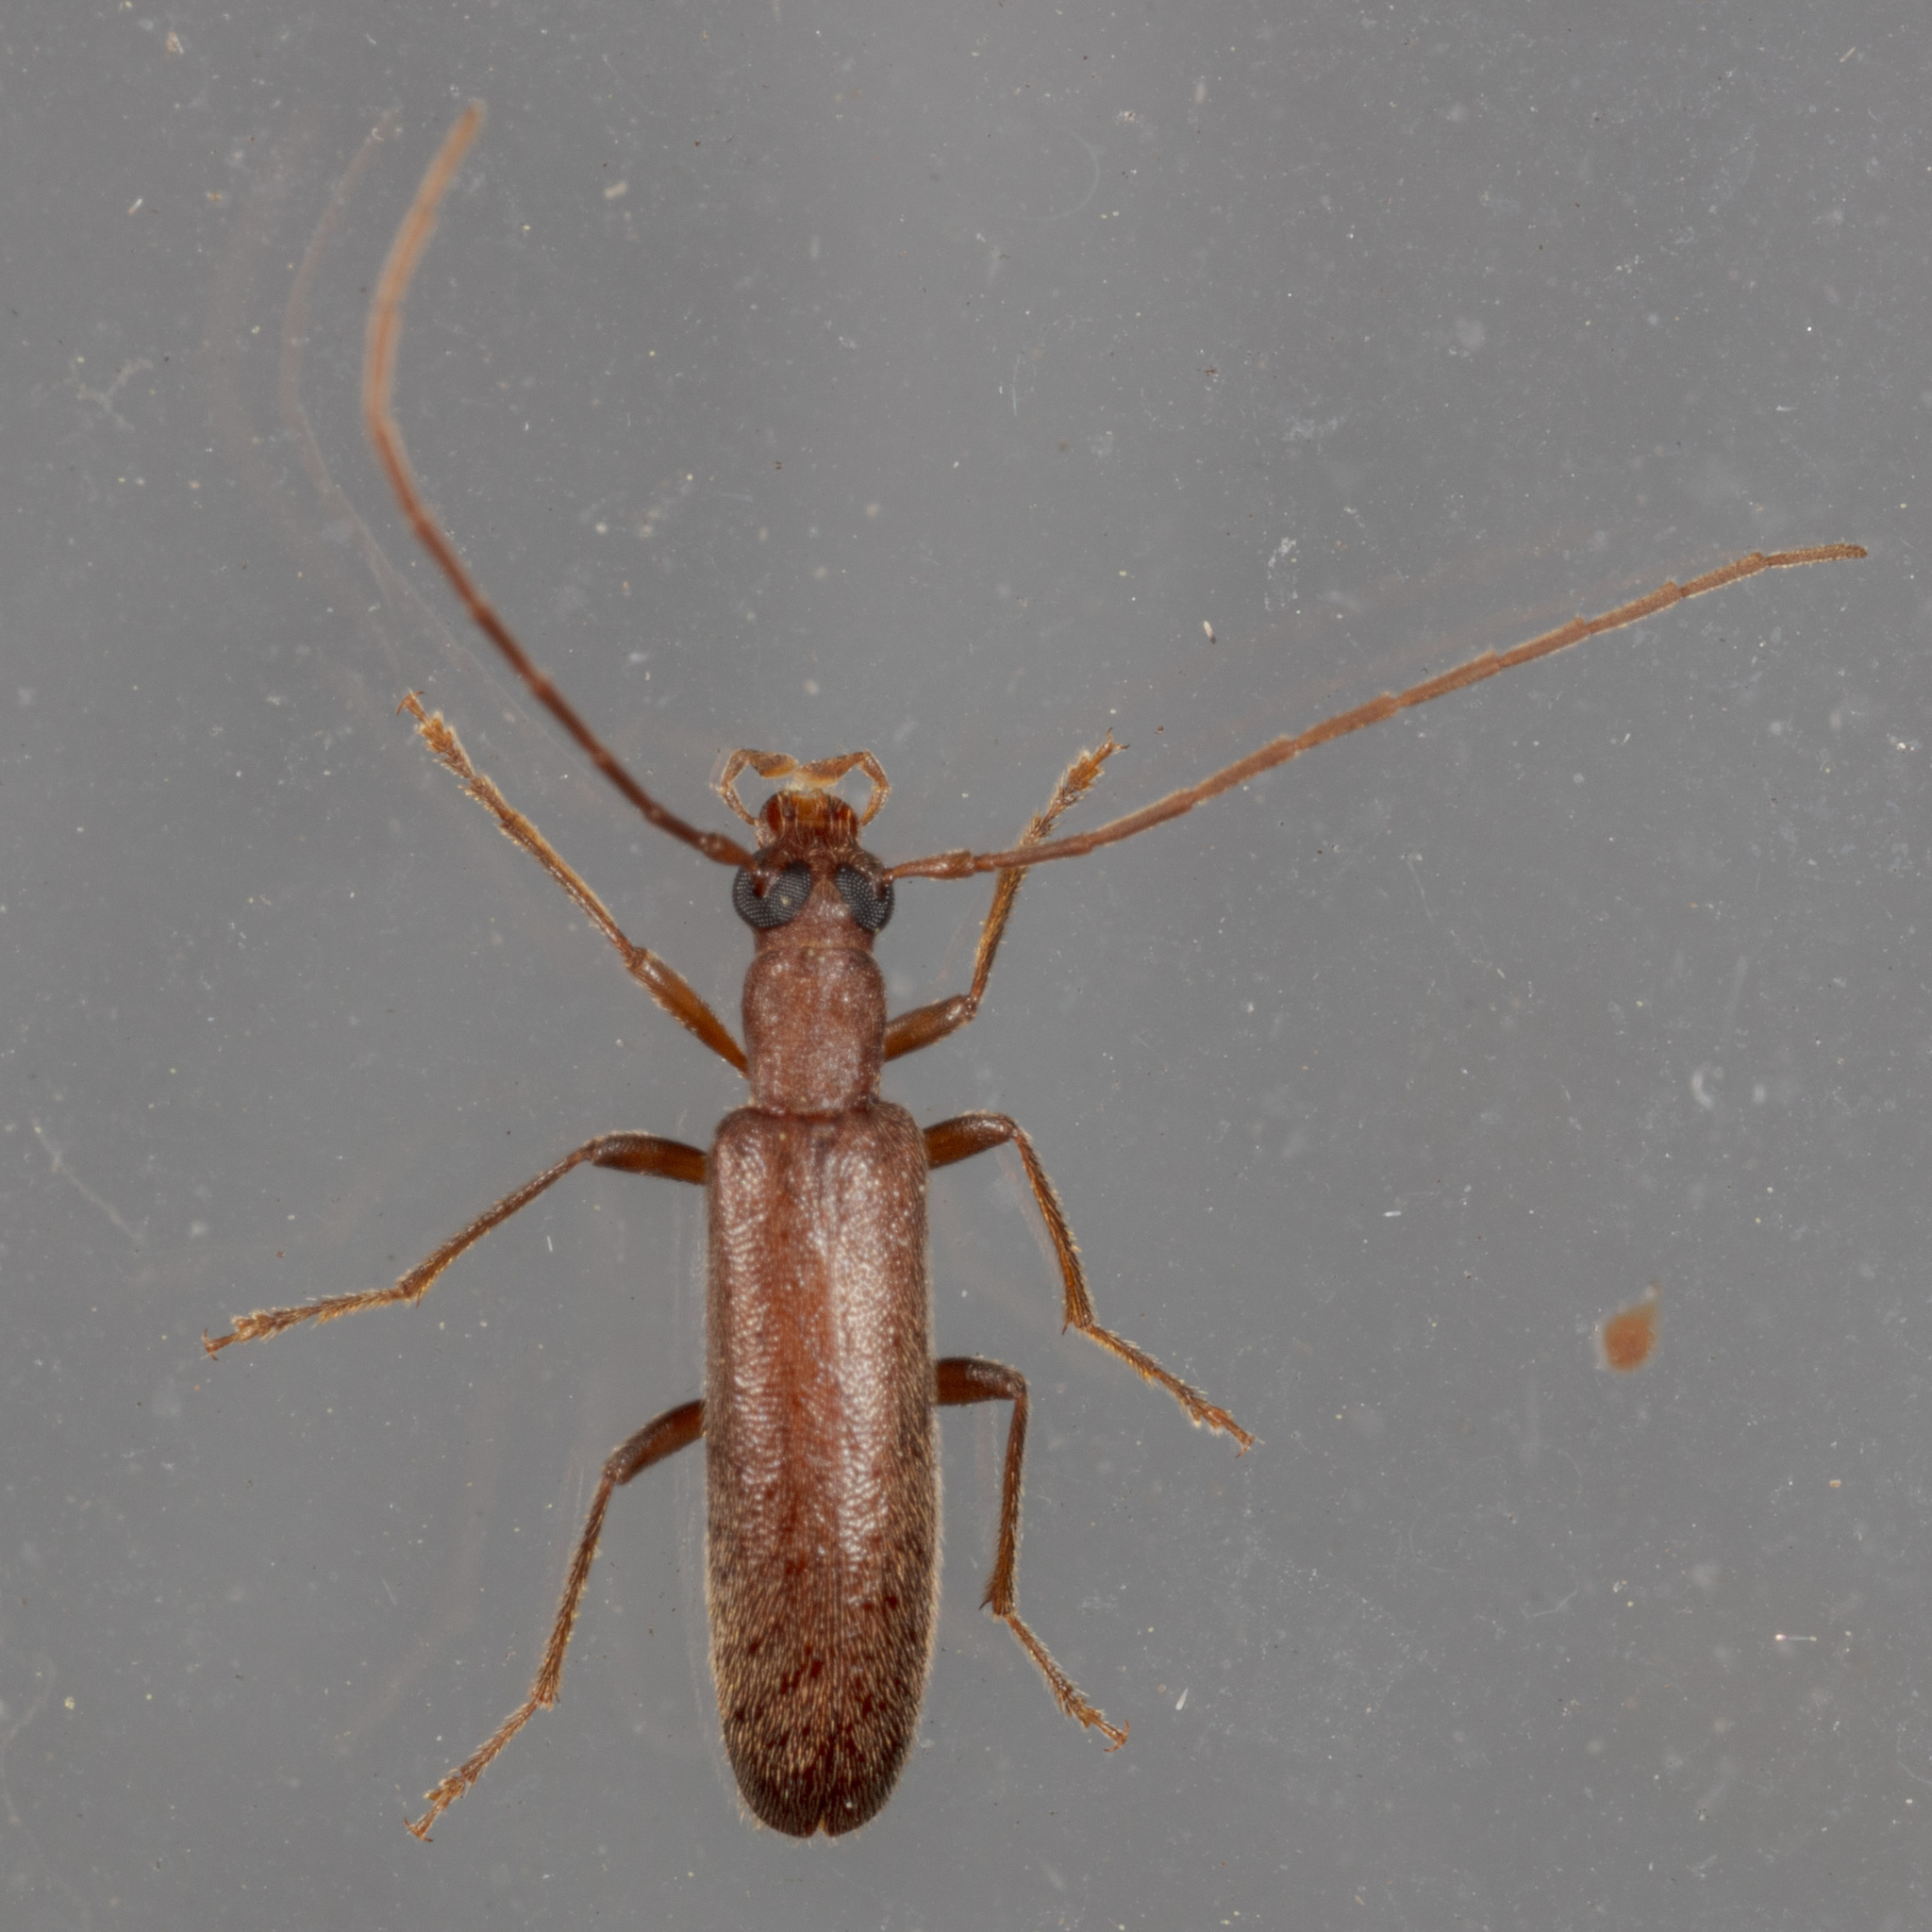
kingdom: Animalia
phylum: Arthropoda
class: Insecta
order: Coleoptera
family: Oedemeridae
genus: Sparedrus
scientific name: Sparedrus aspersus
